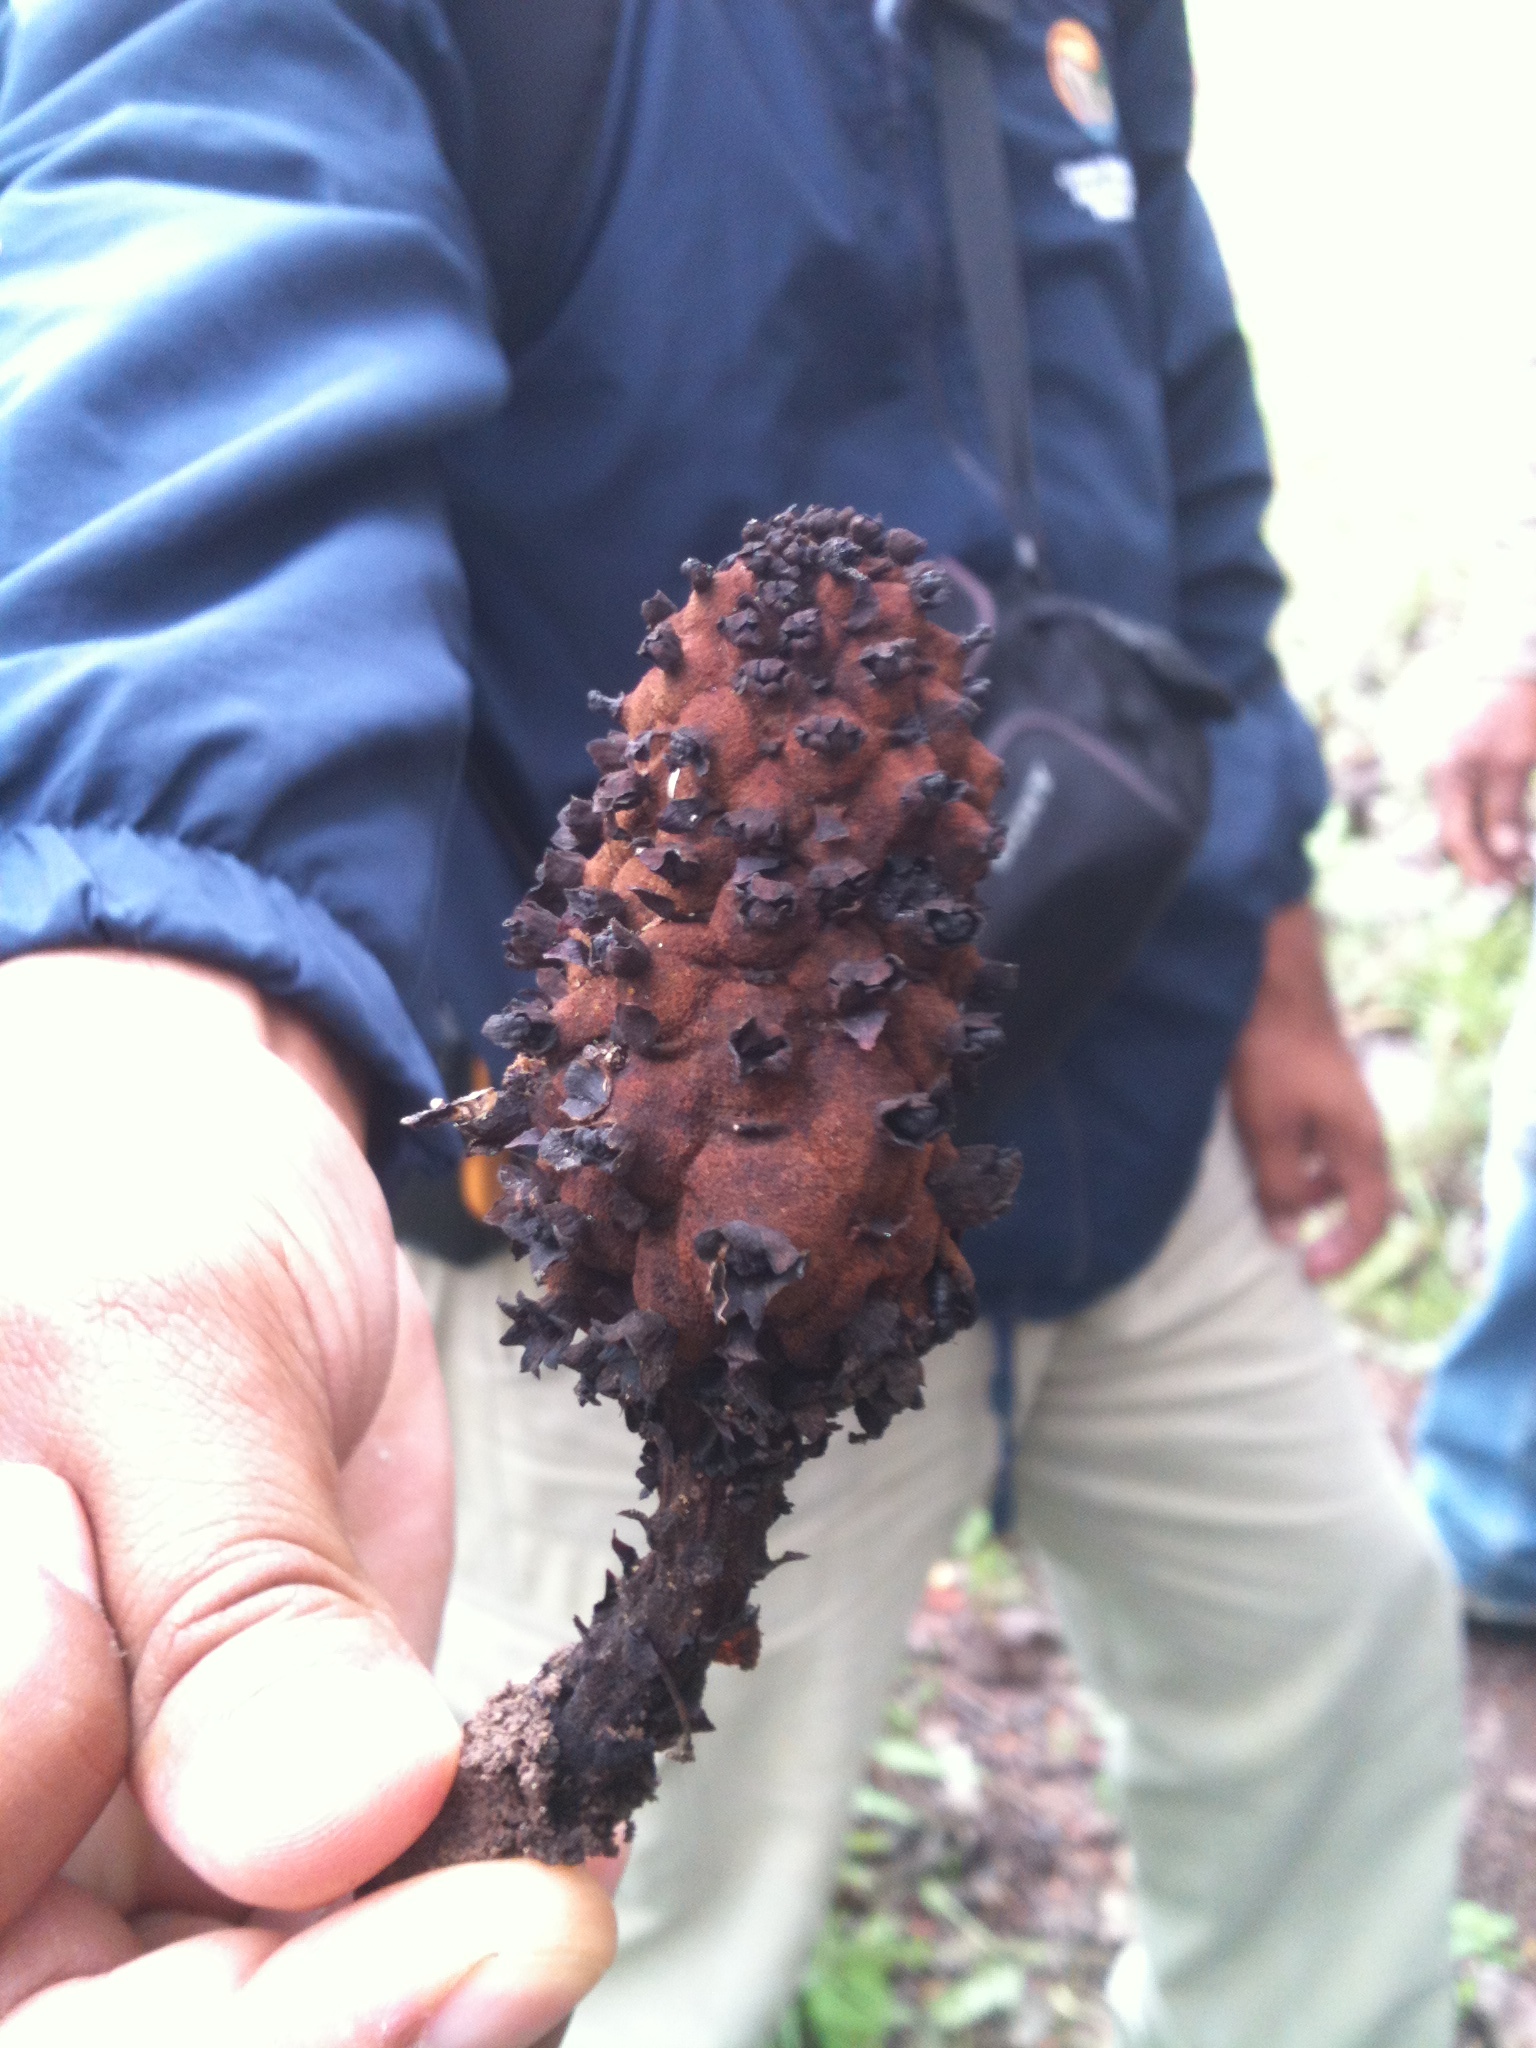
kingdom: Plantae
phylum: Tracheophyta
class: Magnoliopsida
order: Malvales
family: Cytinaceae
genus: Bdallophyton
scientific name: Bdallophyton andrieuxii
